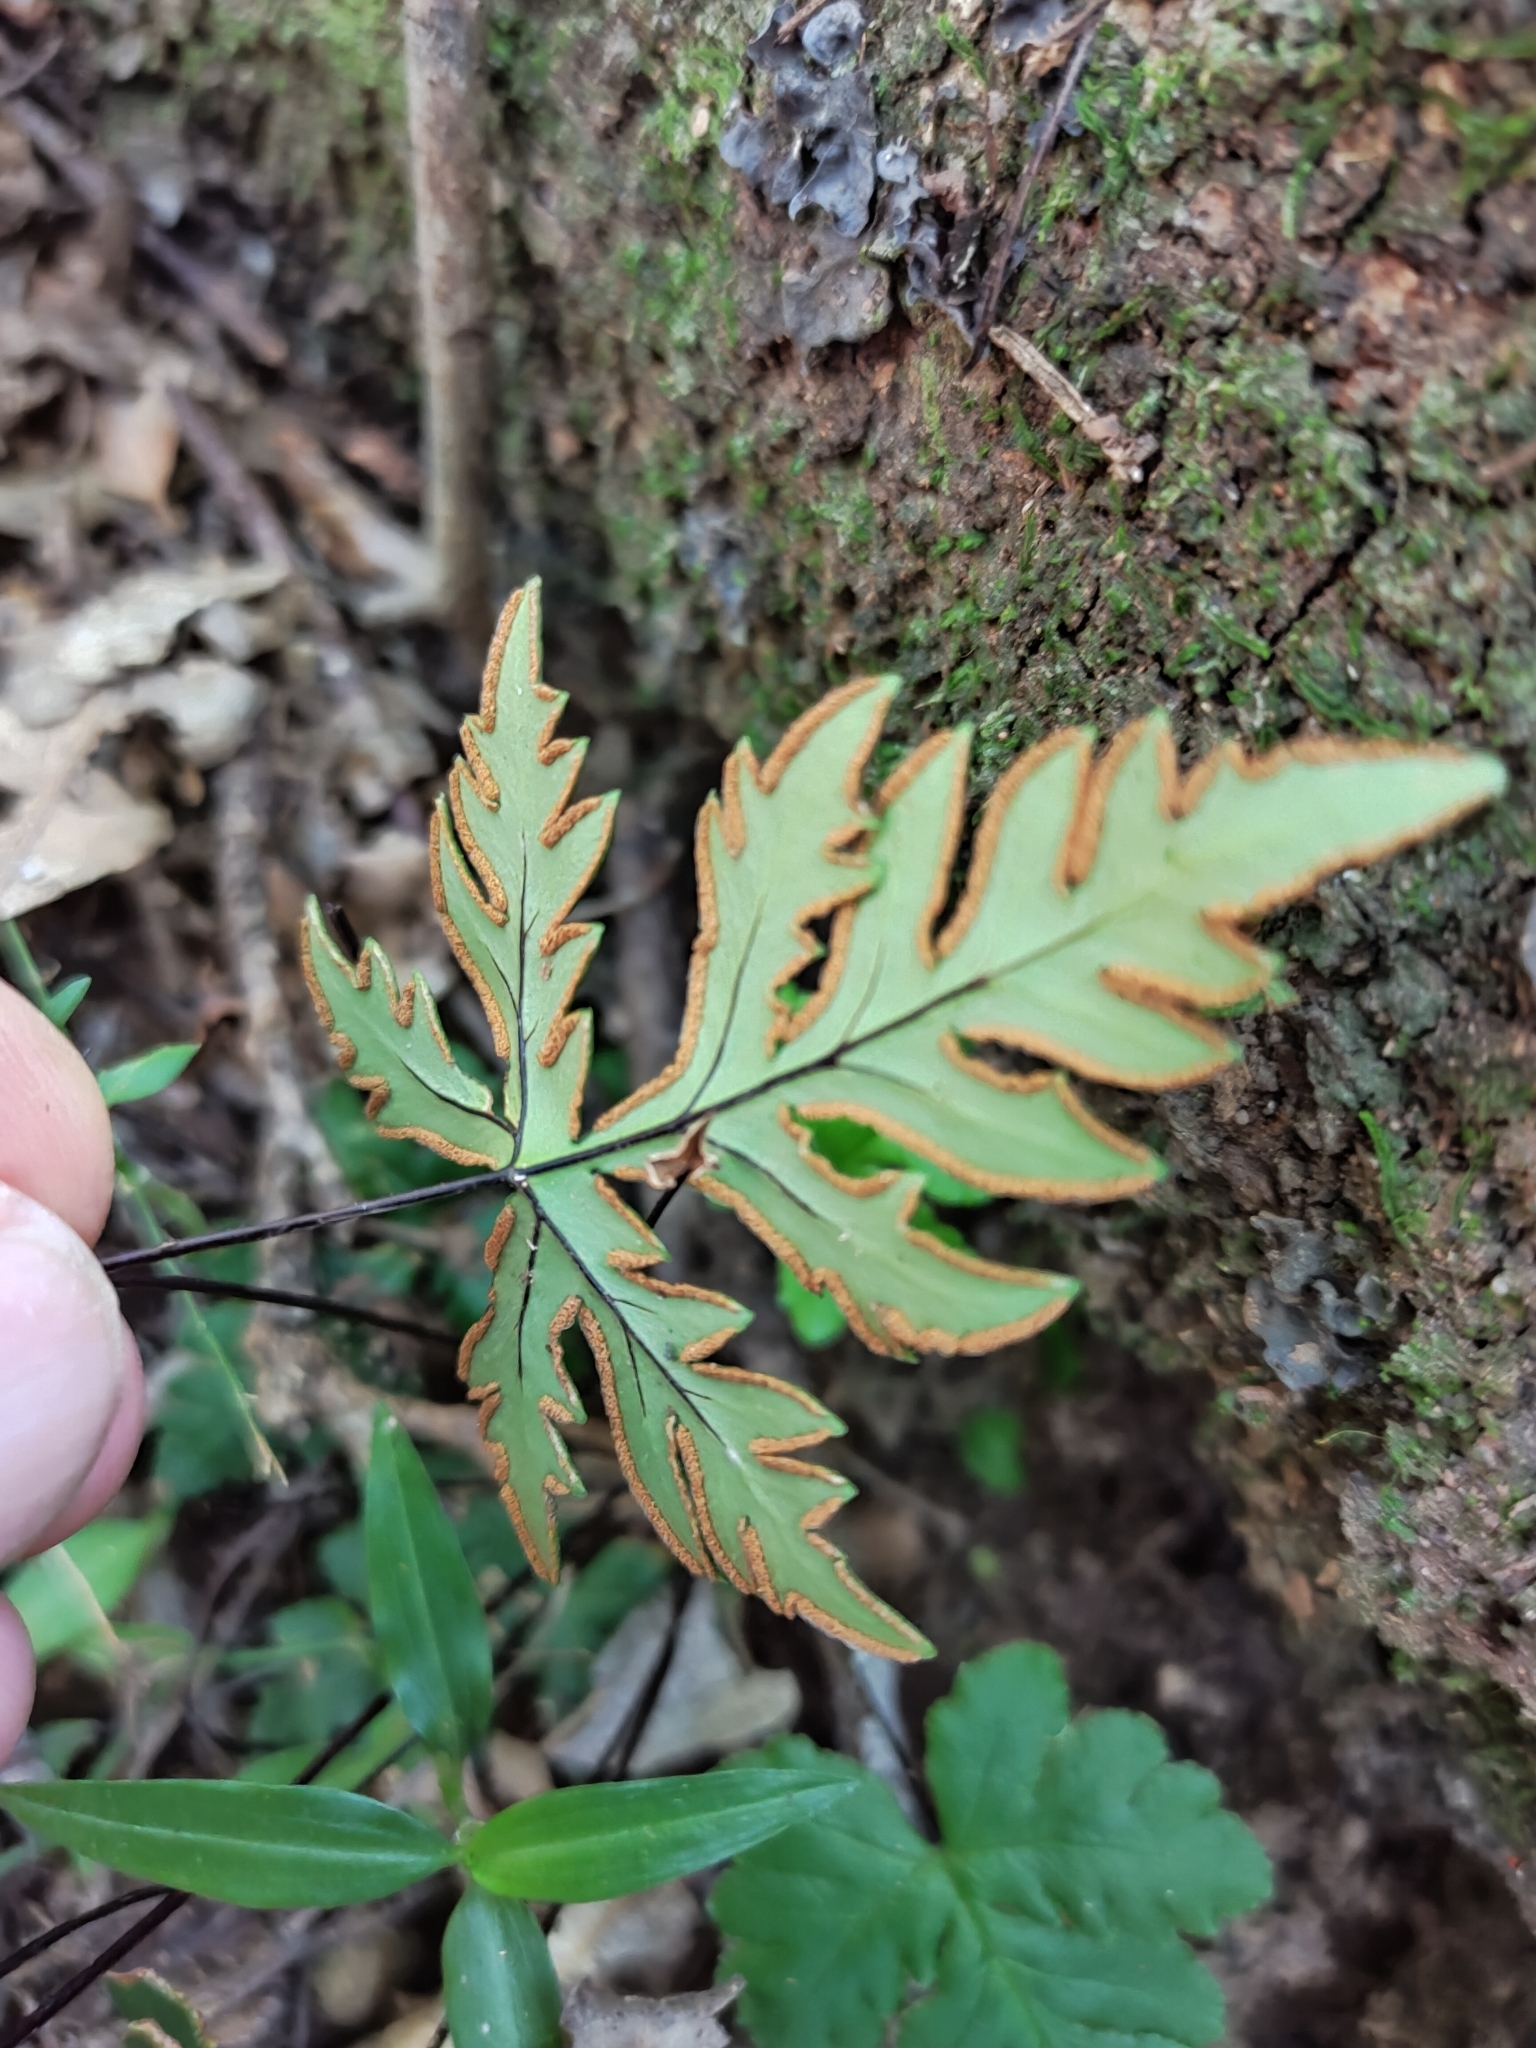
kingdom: Plantae
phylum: Tracheophyta
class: Polypodiopsida
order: Polypodiales
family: Pteridaceae
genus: Doryopteris
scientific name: Doryopteris concolor
